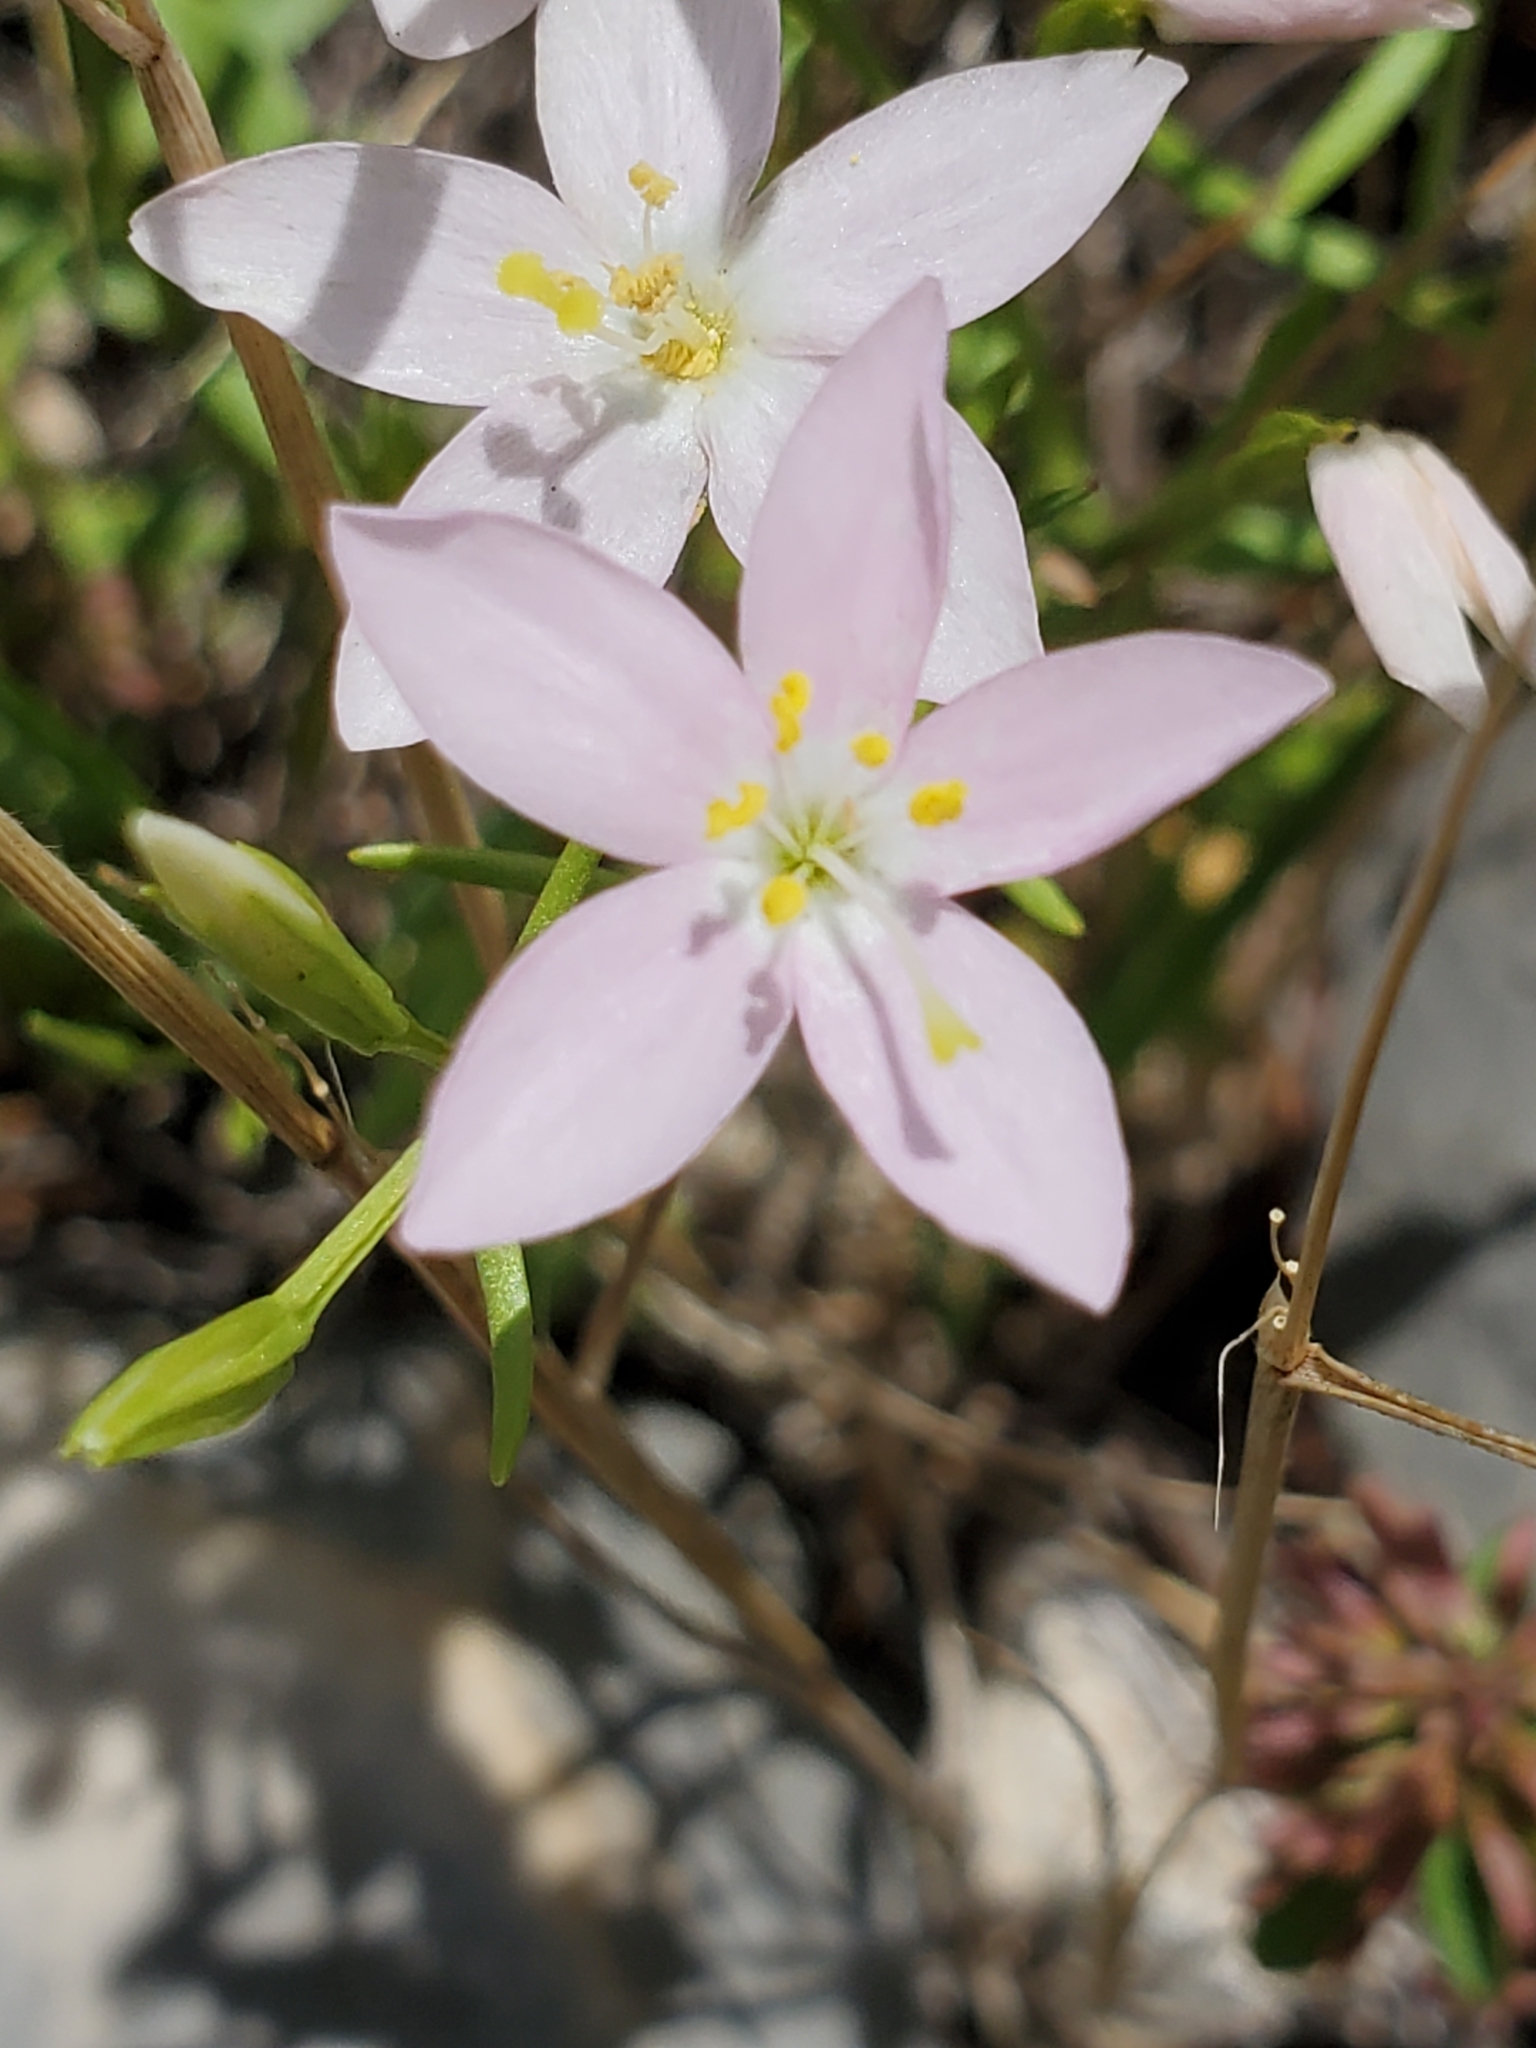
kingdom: Plantae
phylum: Tracheophyta
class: Magnoliopsida
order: Gentianales
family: Gentianaceae
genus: Zeltnera
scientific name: Zeltnera calycosa
